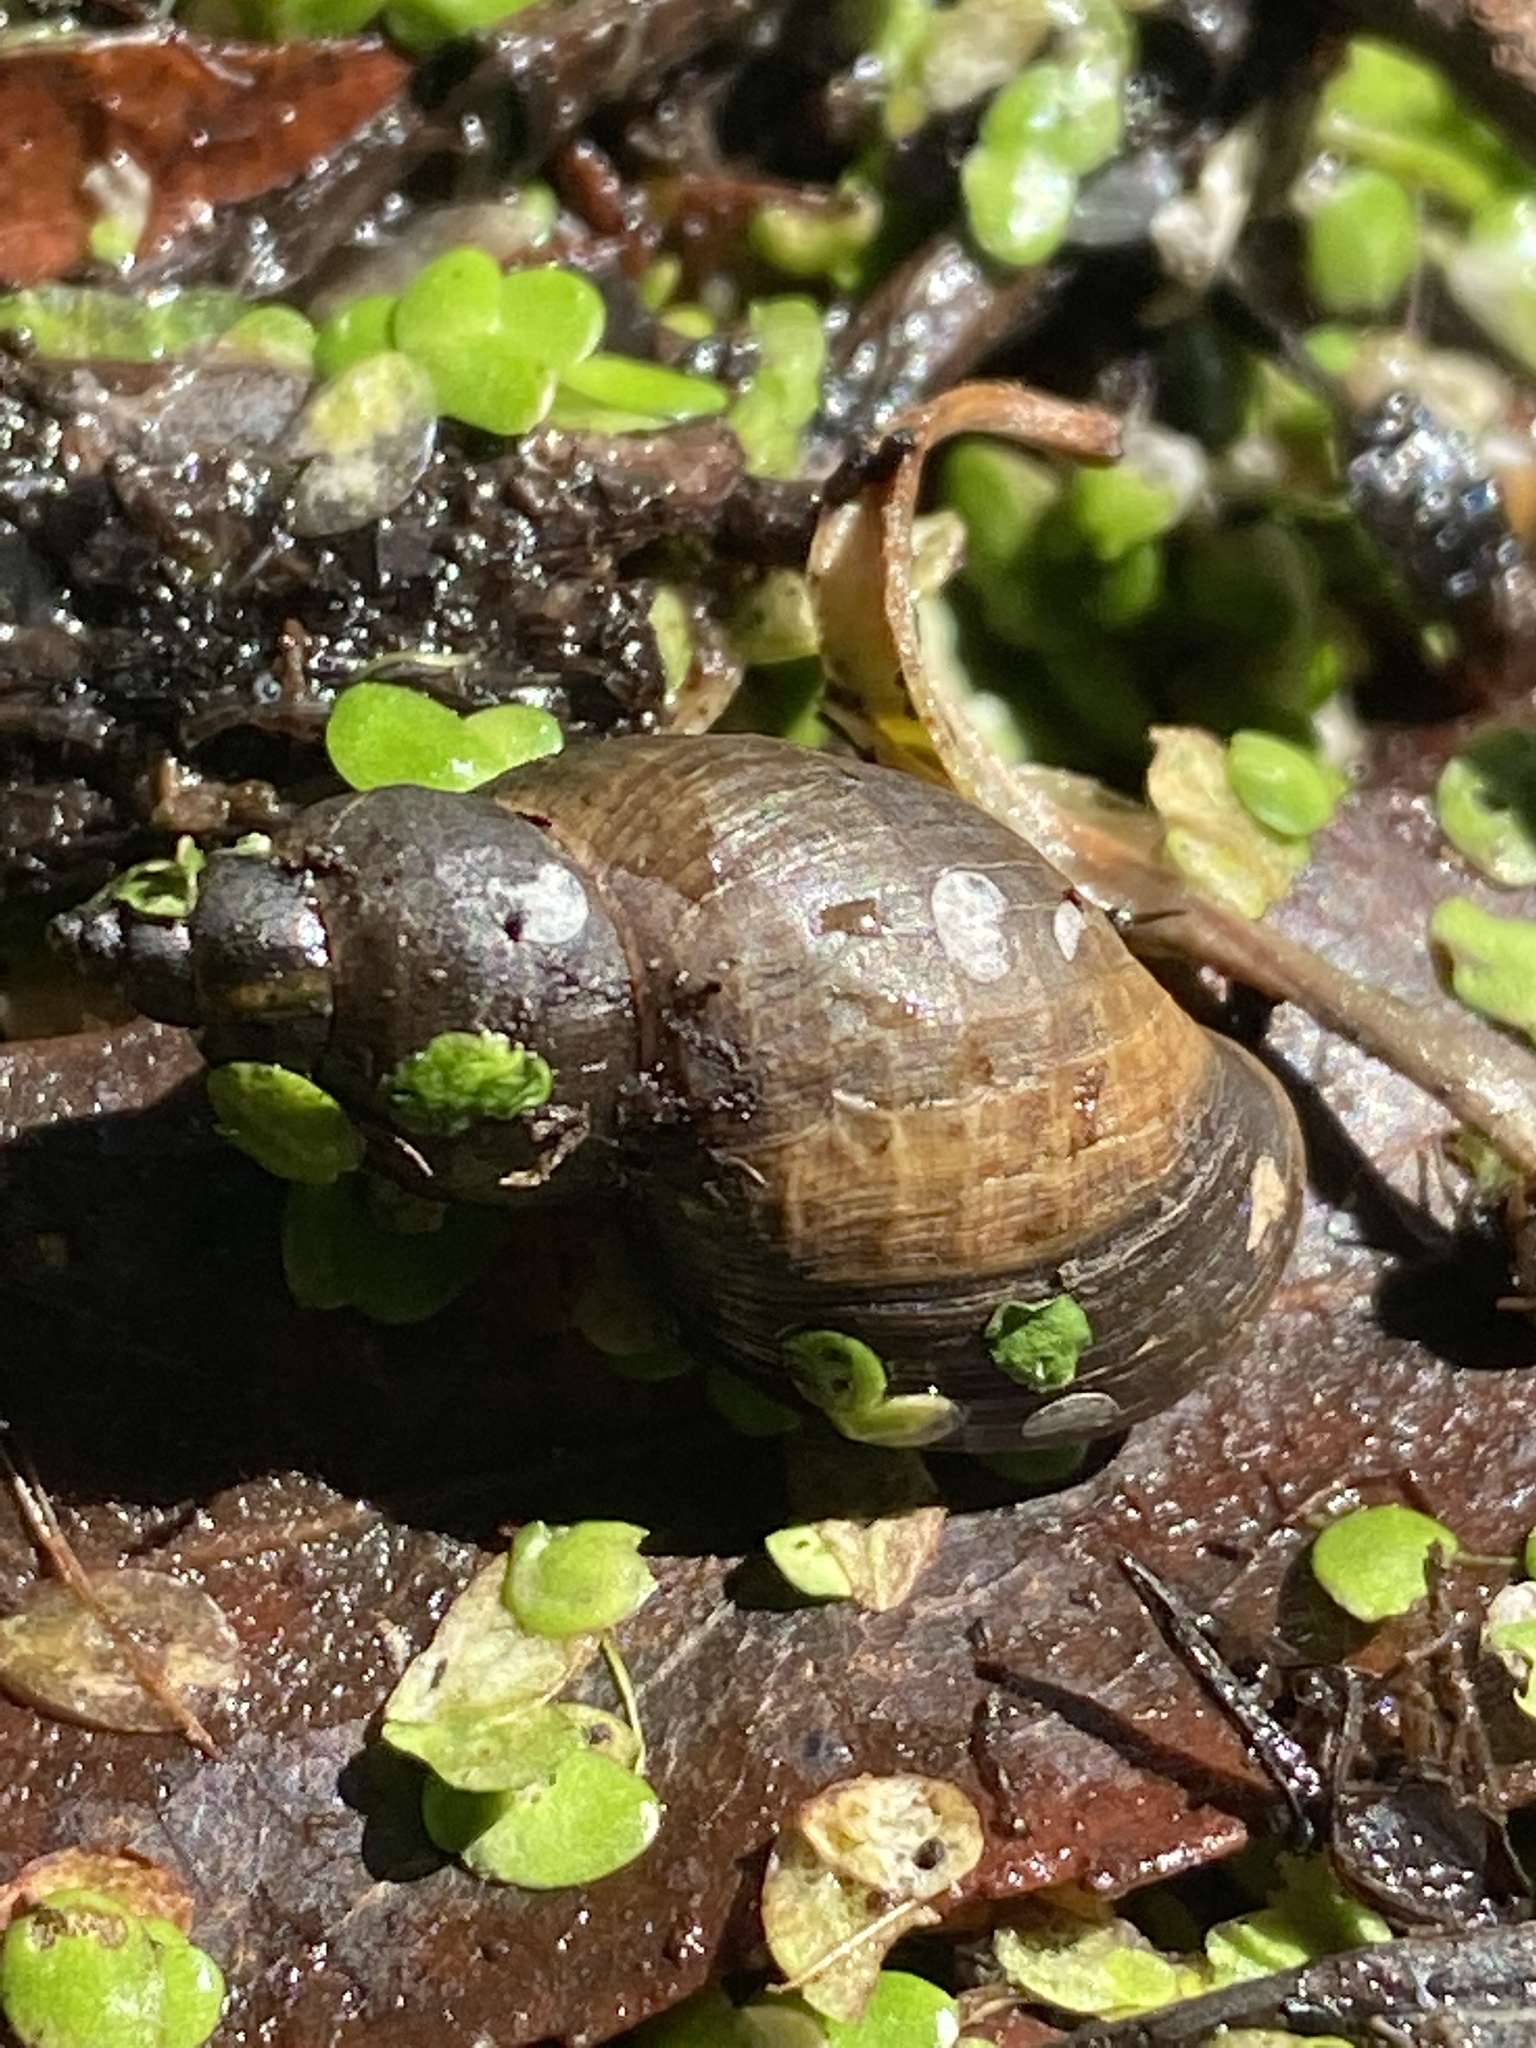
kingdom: Animalia
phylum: Mollusca
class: Gastropoda
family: Lymnaeidae
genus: Lymnaea
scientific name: Lymnaea stagnalis
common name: Great pond snail
